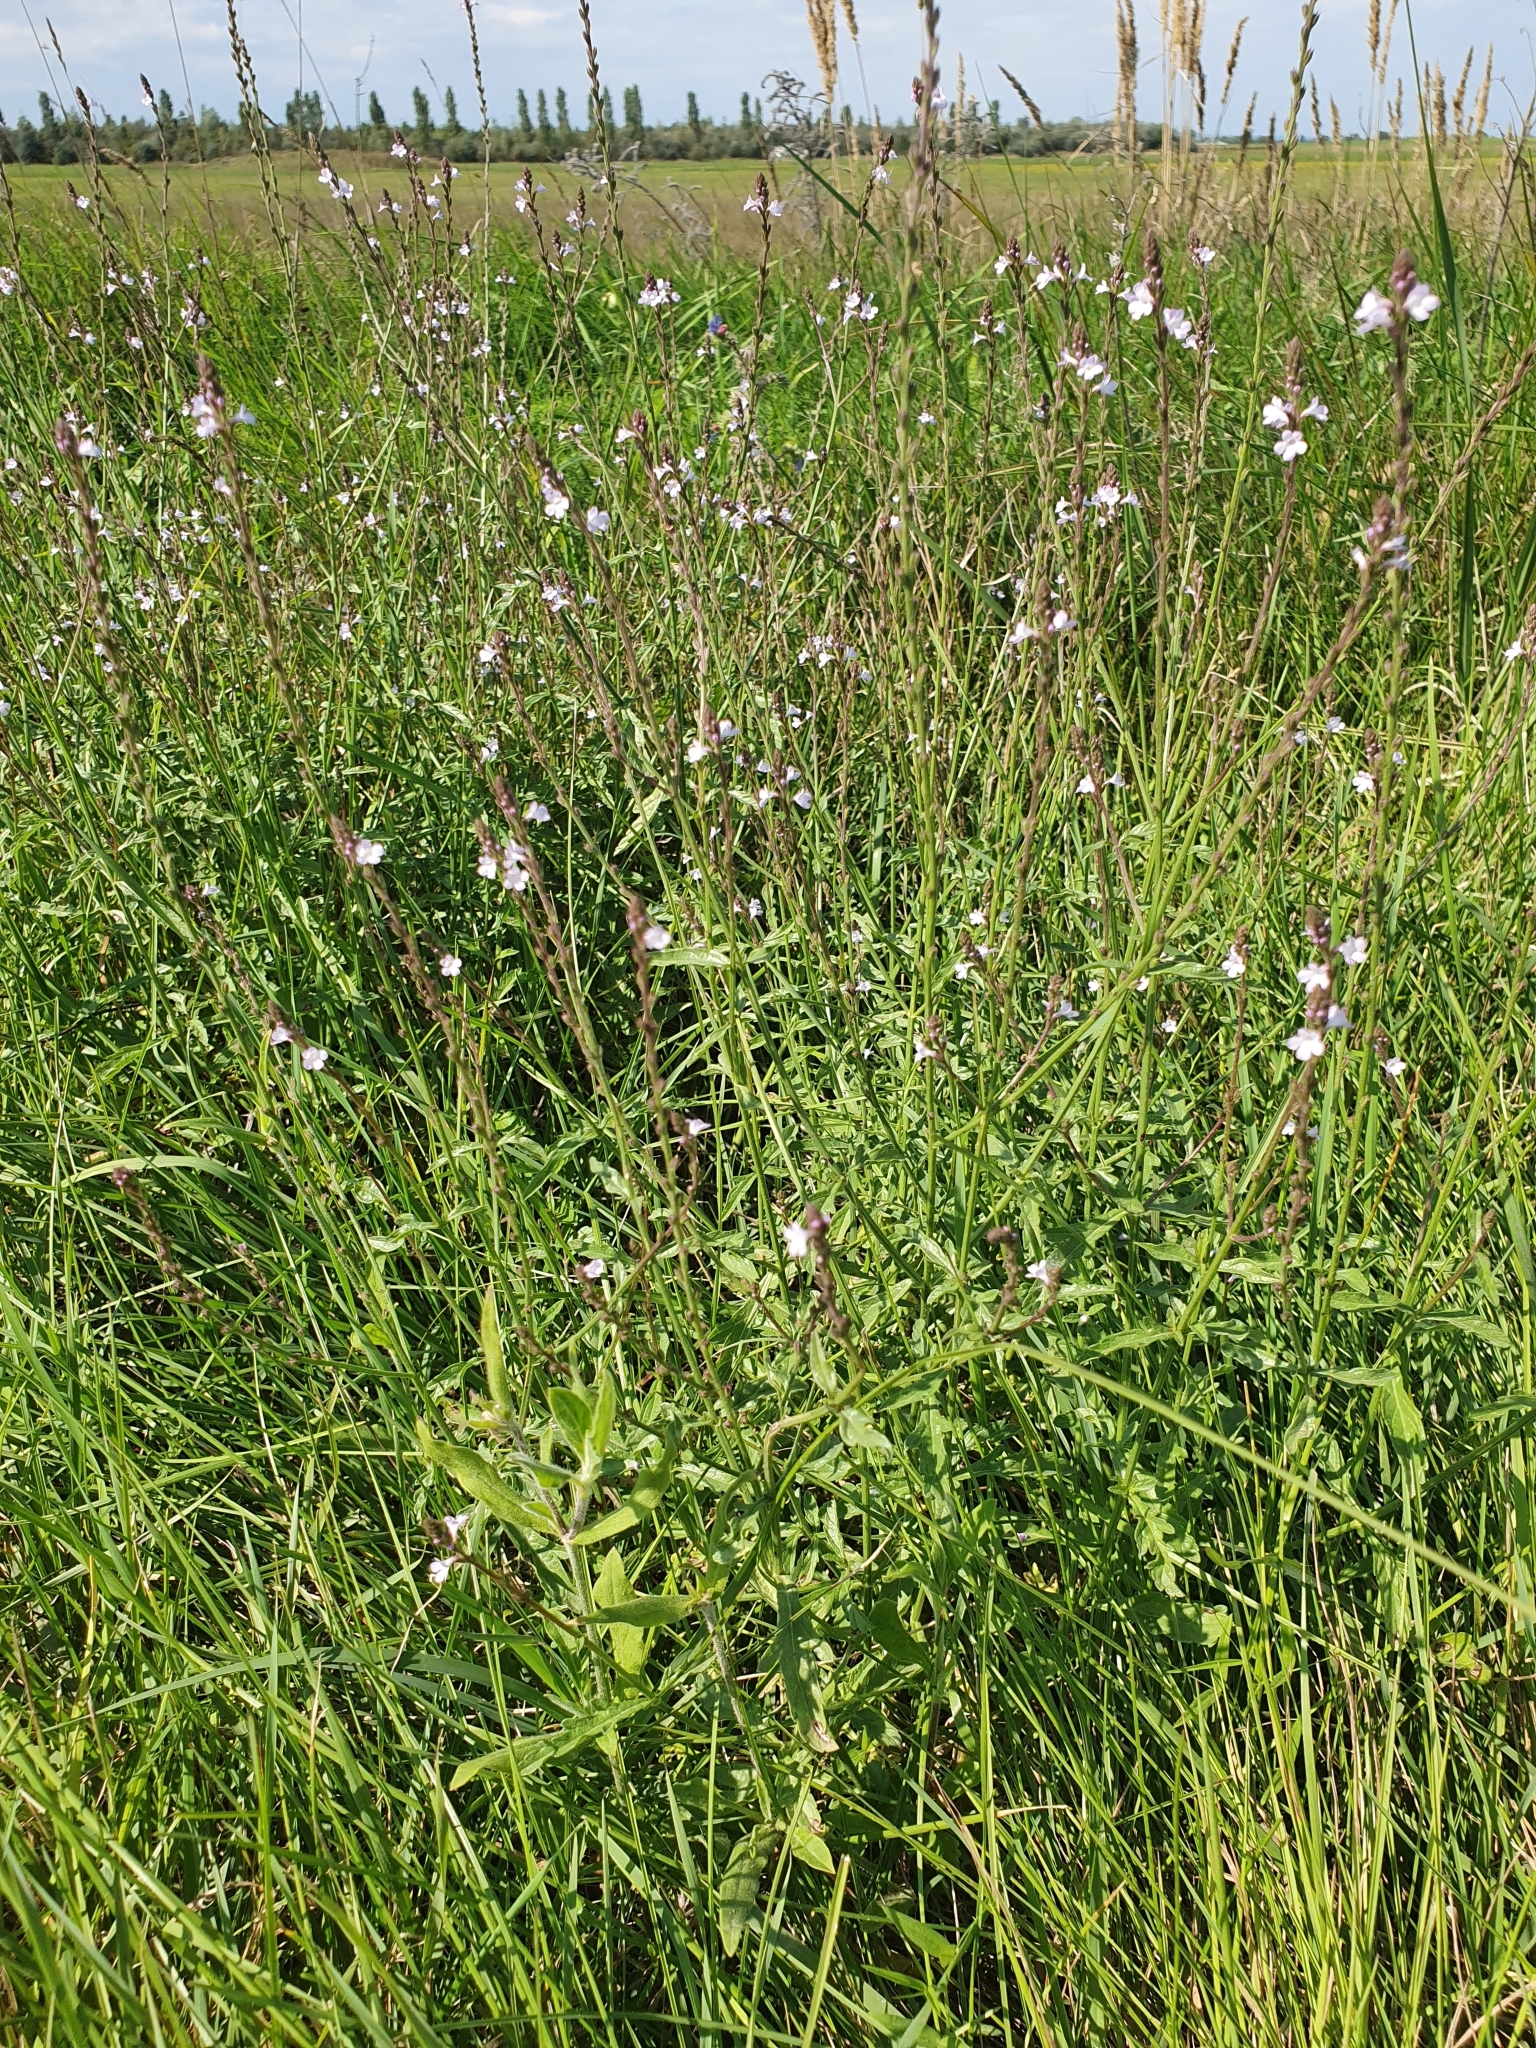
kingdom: Plantae
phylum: Tracheophyta
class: Magnoliopsida
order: Lamiales
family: Verbenaceae
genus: Verbena
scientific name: Verbena officinalis
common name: Vervain
